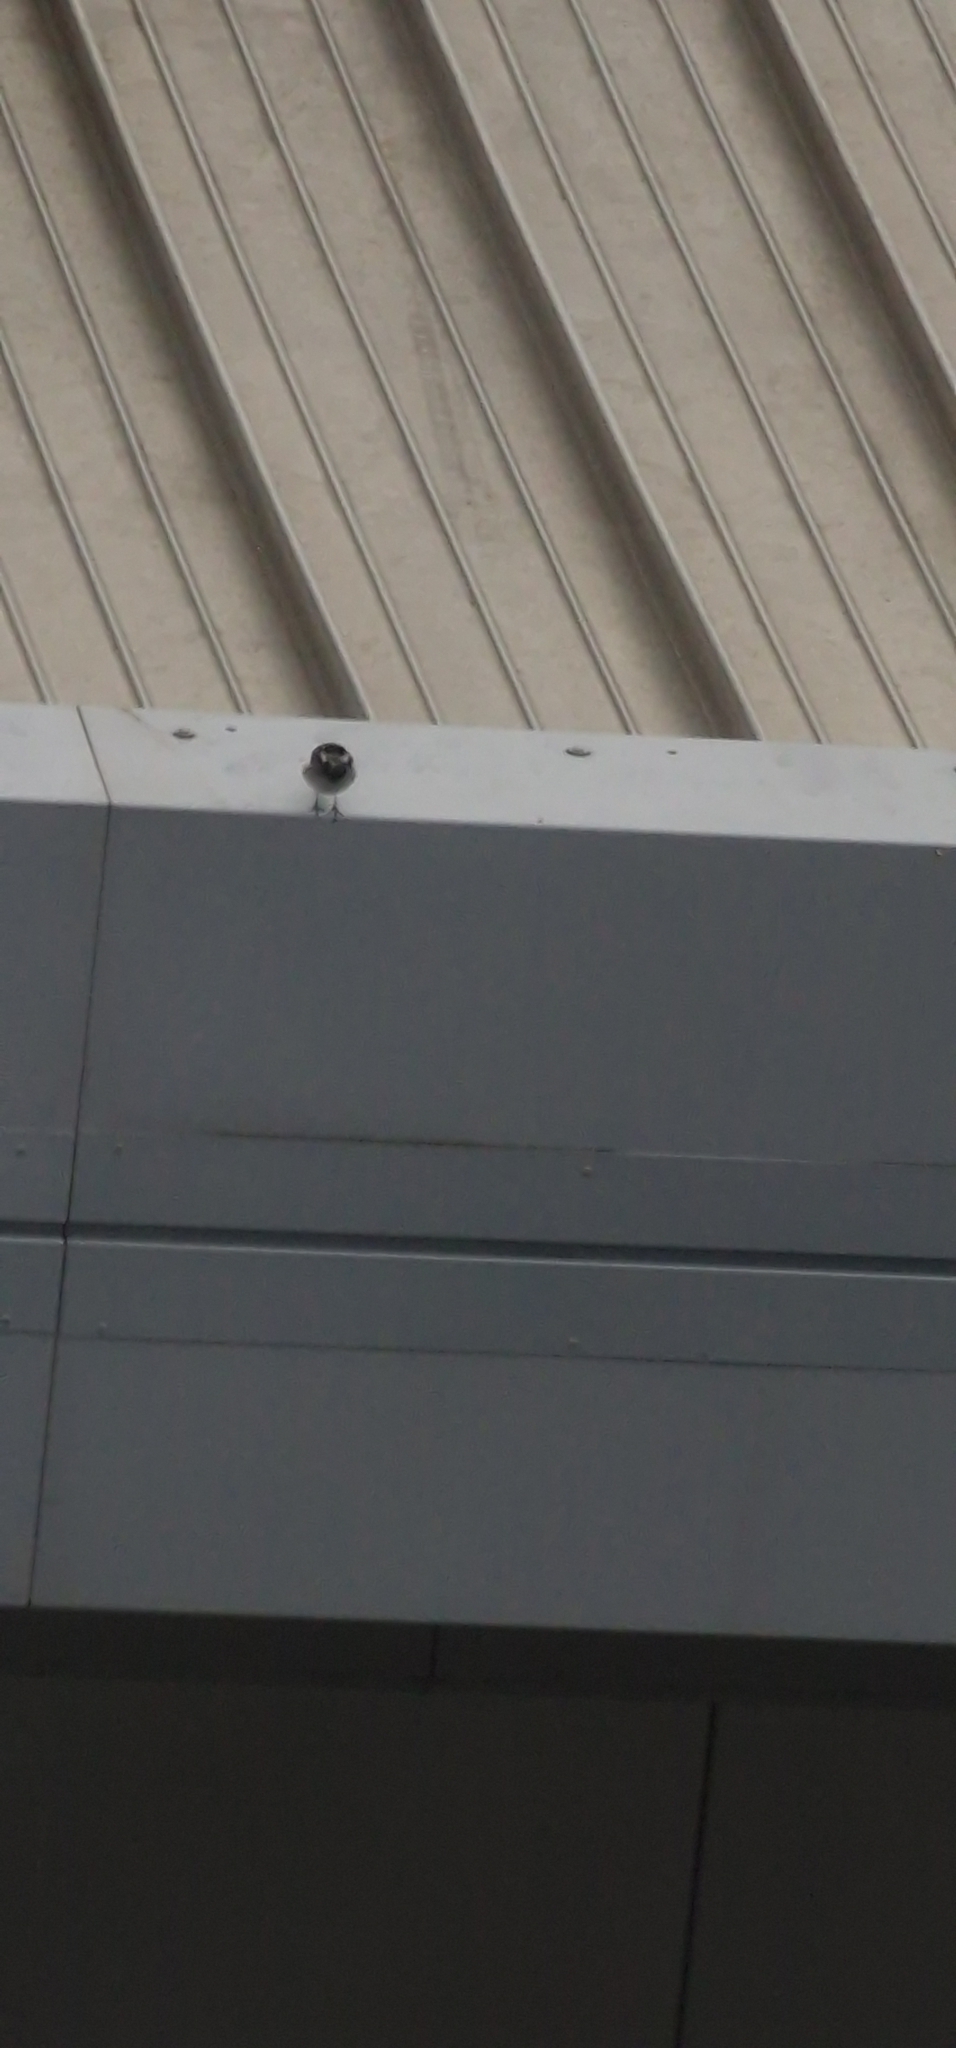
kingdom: Animalia
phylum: Chordata
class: Aves
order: Passeriformes
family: Motacillidae
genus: Motacilla
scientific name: Motacilla alba
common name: White wagtail
